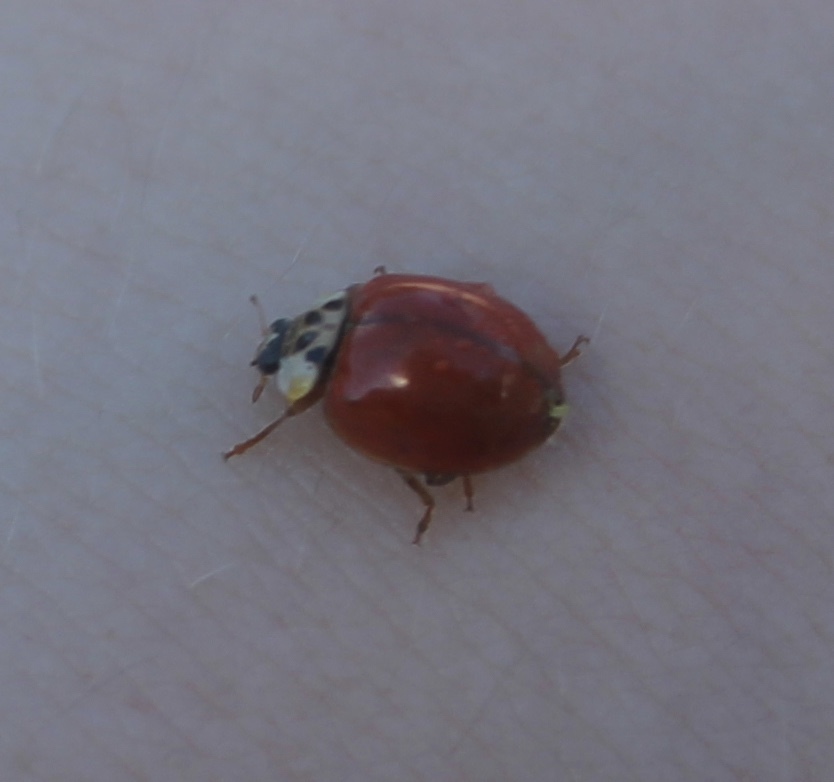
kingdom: Fungi
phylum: Ascomycota
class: Laboulbeniomycetes
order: Laboulbeniales
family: Laboulbeniaceae
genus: Hesperomyces
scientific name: Hesperomyces harmoniae
